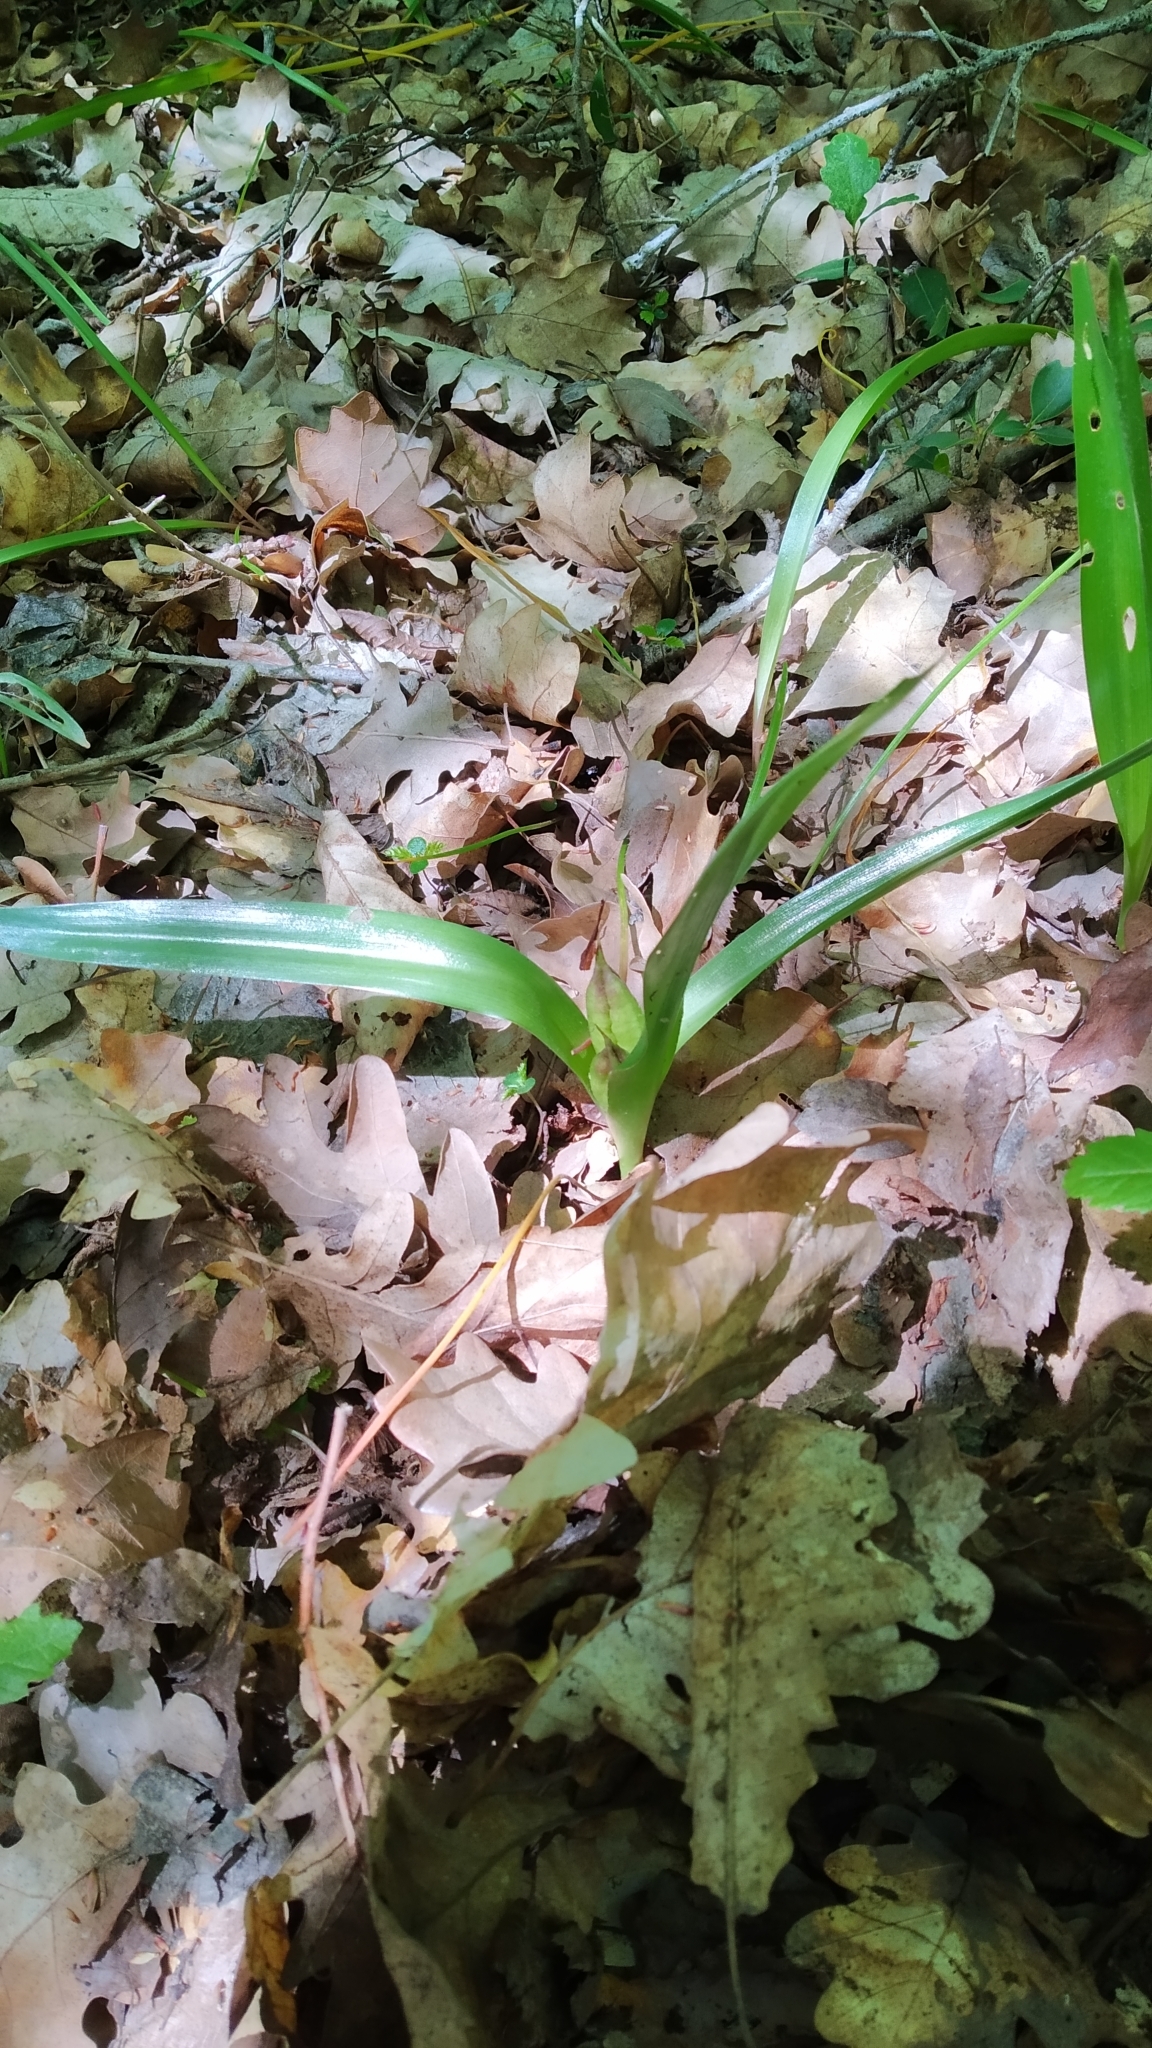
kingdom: Plantae
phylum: Tracheophyta
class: Liliopsida
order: Liliales
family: Colchicaceae
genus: Colchicum
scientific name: Colchicum umbrosum
